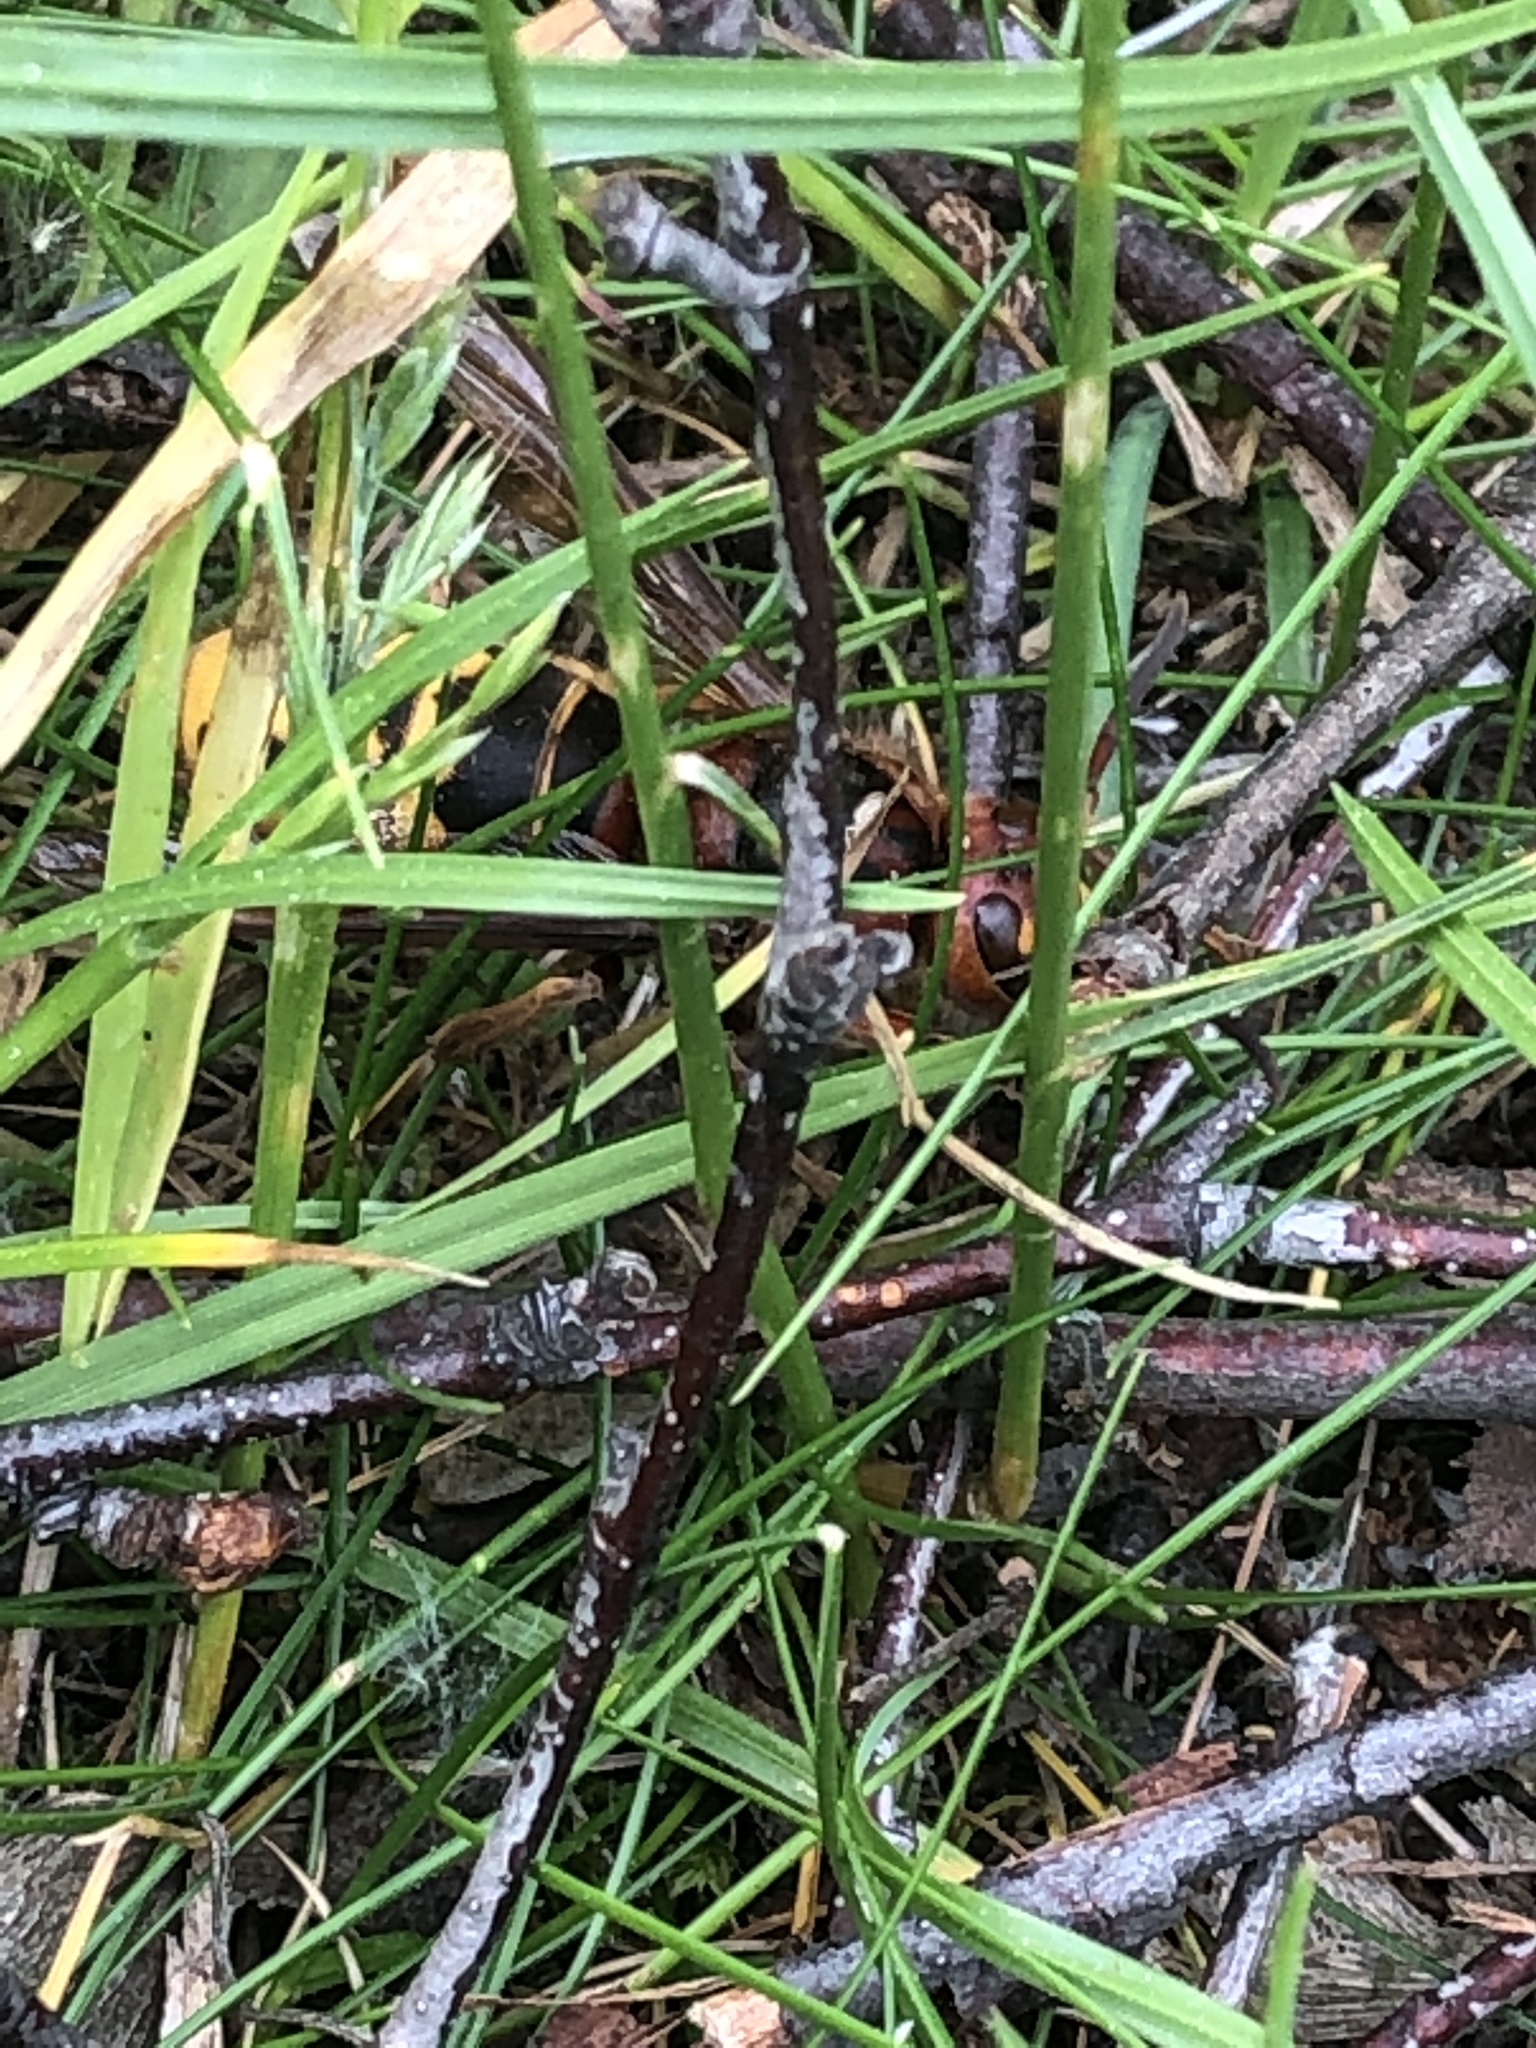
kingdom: Animalia
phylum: Arthropoda
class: Insecta
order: Hymenoptera
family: Vespidae
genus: Vespa
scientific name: Vespa crabro
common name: Hornet
